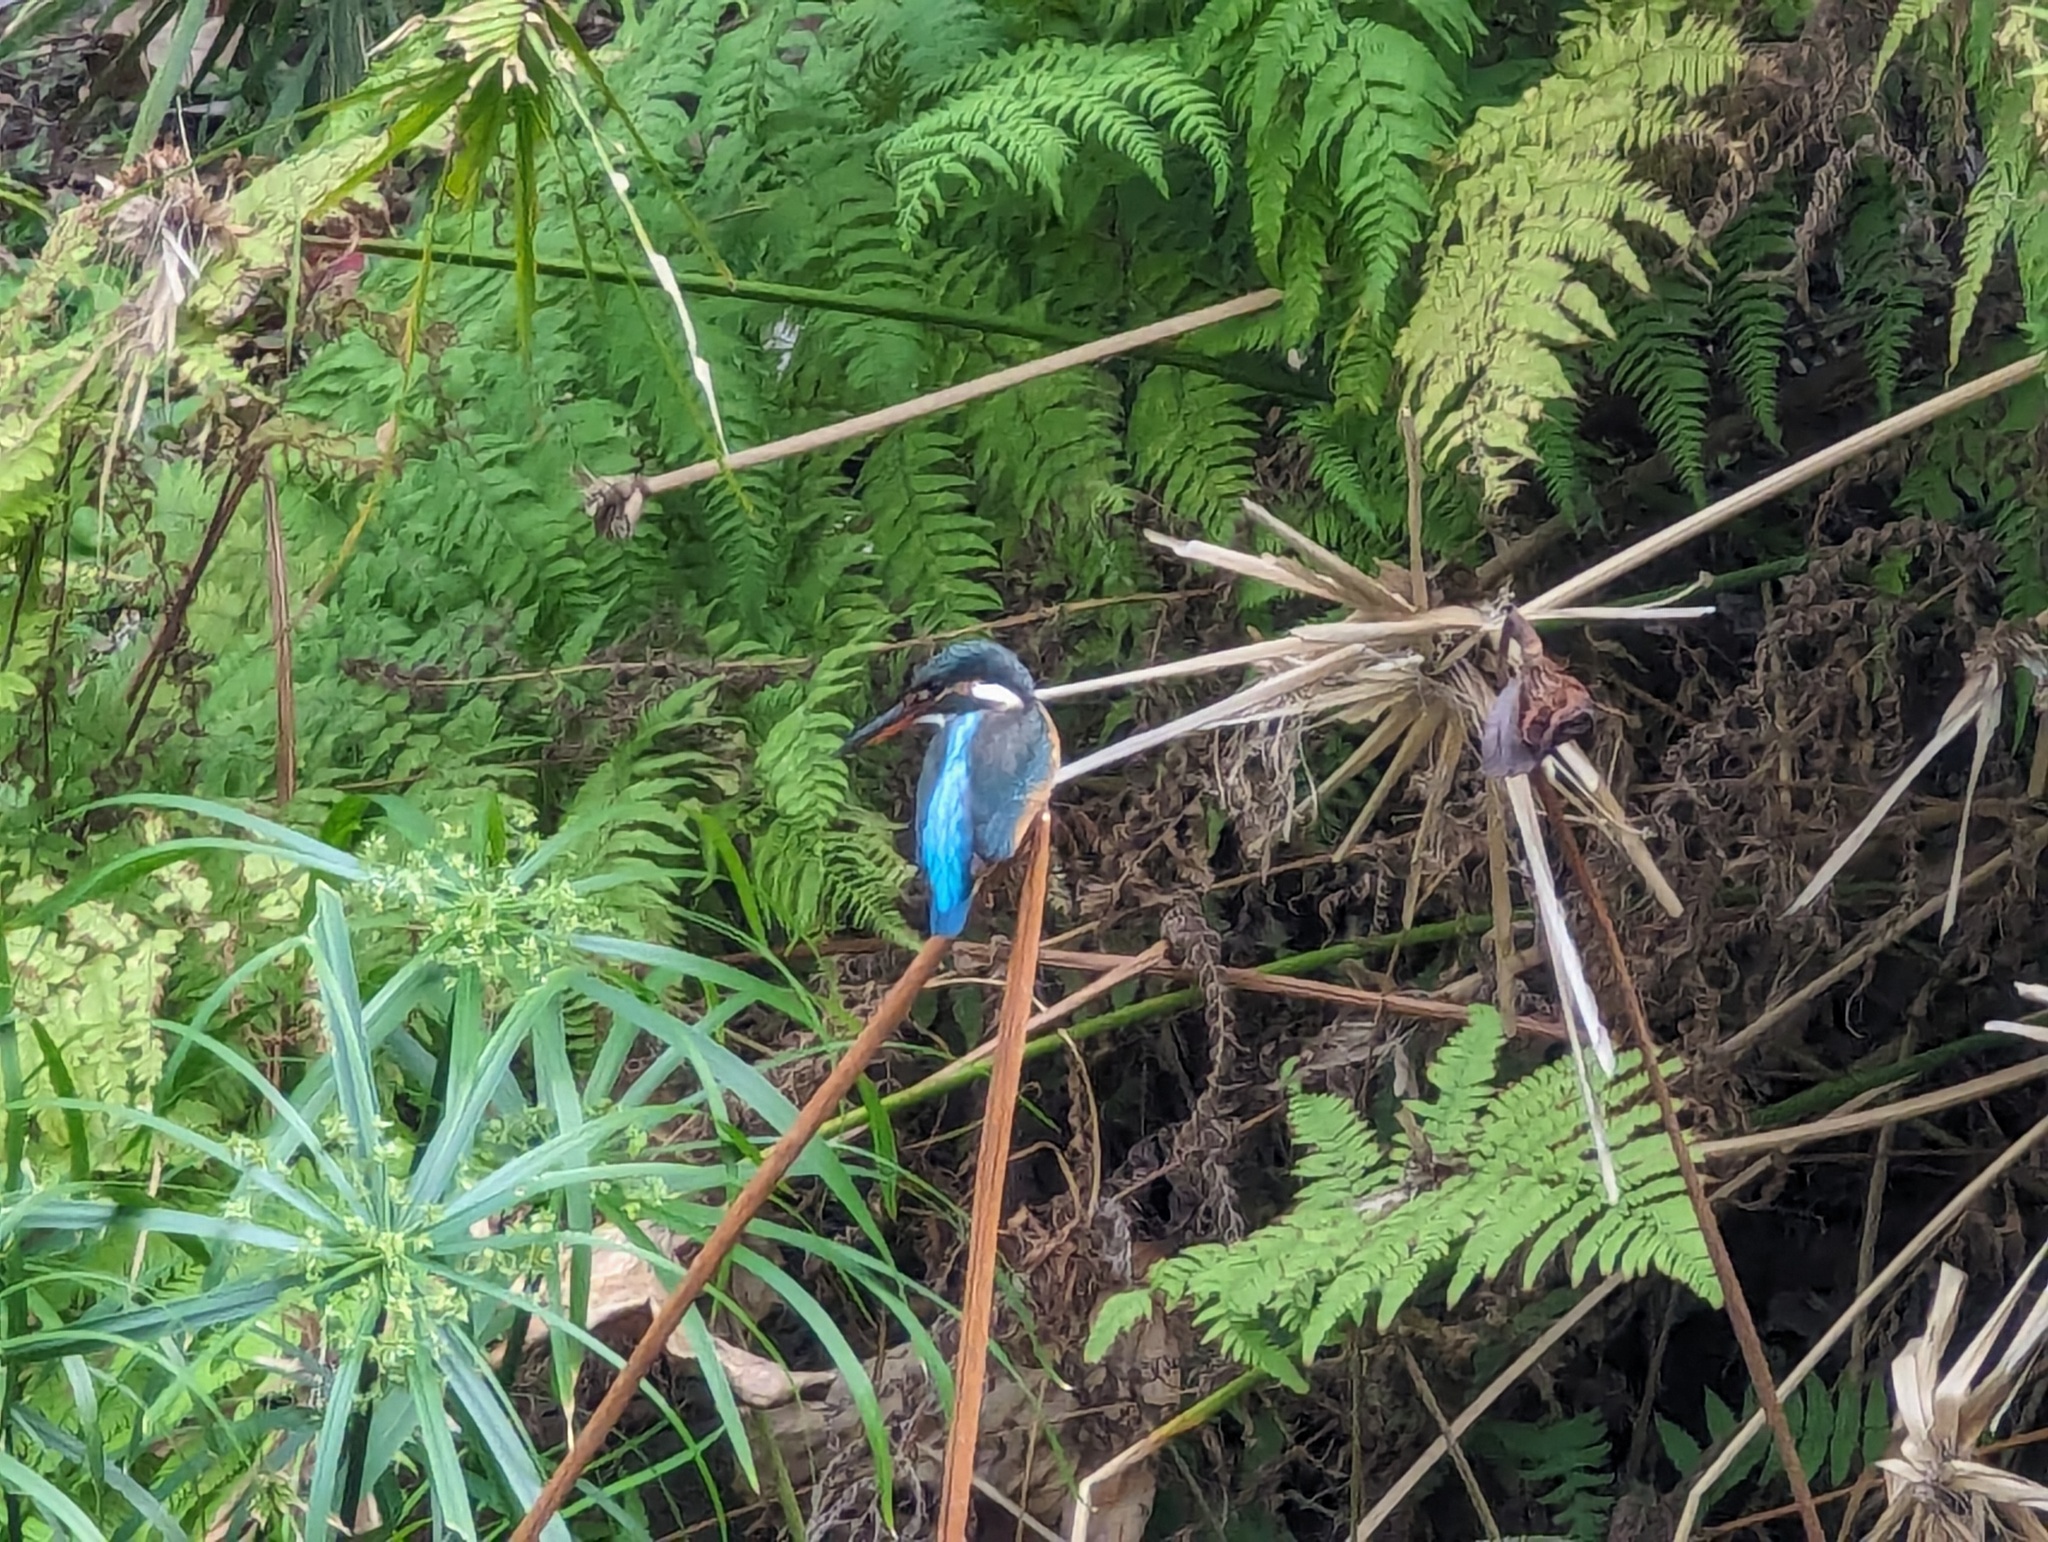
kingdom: Animalia
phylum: Chordata
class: Aves
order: Coraciiformes
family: Alcedinidae
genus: Alcedo
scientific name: Alcedo atthis
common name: Common kingfisher
